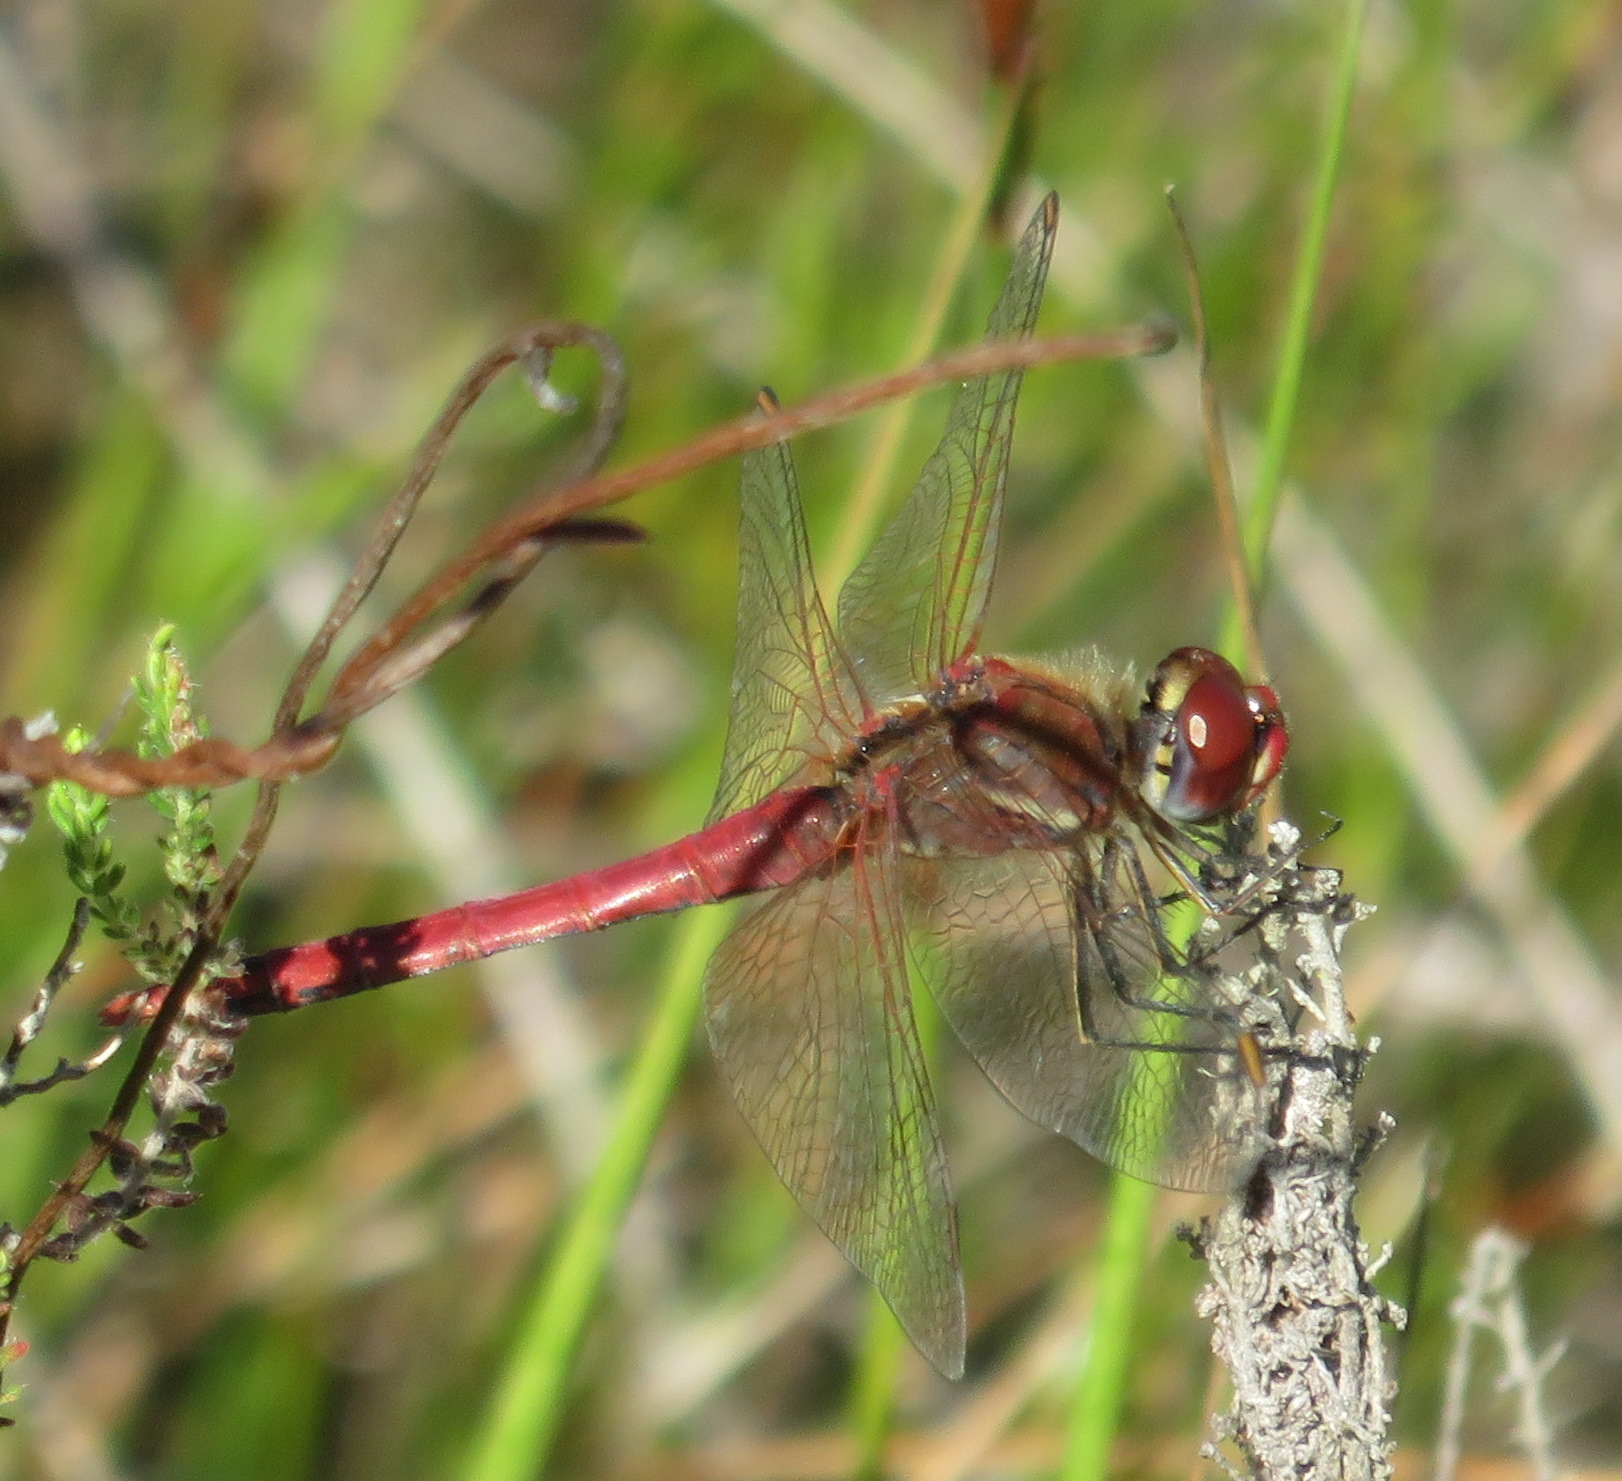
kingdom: Animalia
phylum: Arthropoda
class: Insecta
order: Odonata
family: Libellulidae
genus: Sympetrum
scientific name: Sympetrum fonscolombii
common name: Red-veined darter
